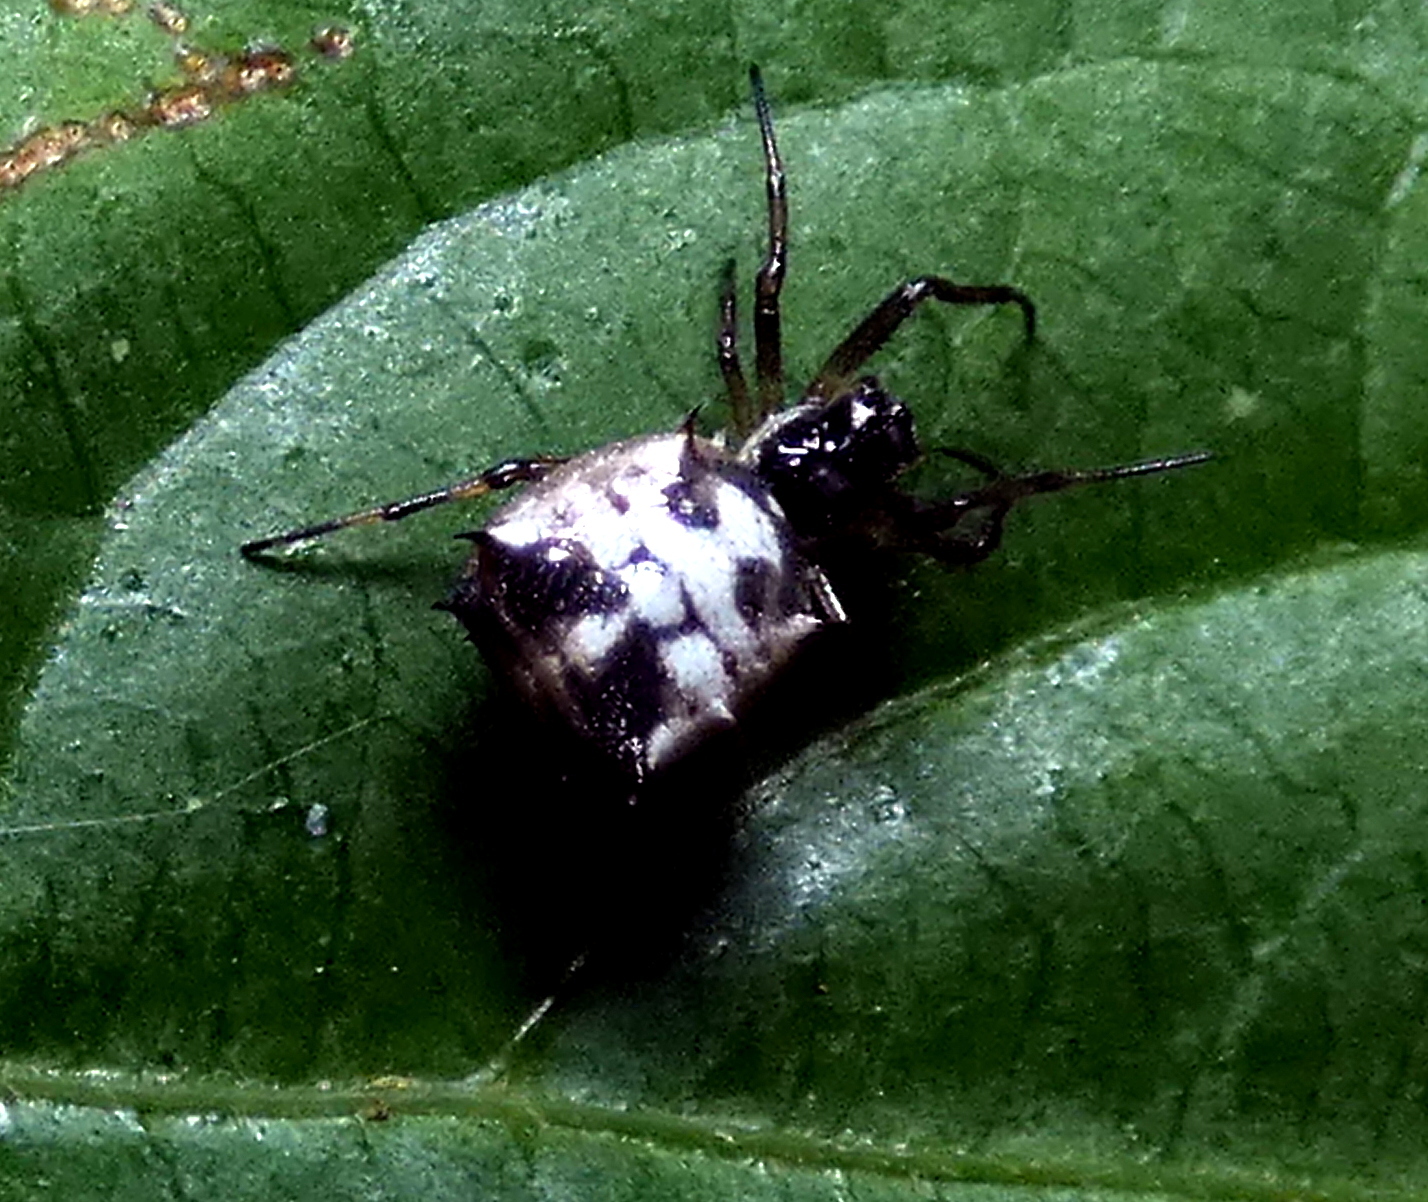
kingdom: Animalia
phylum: Arthropoda
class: Arachnida
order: Araneae
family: Araneidae
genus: Micrathena
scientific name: Micrathena picta
